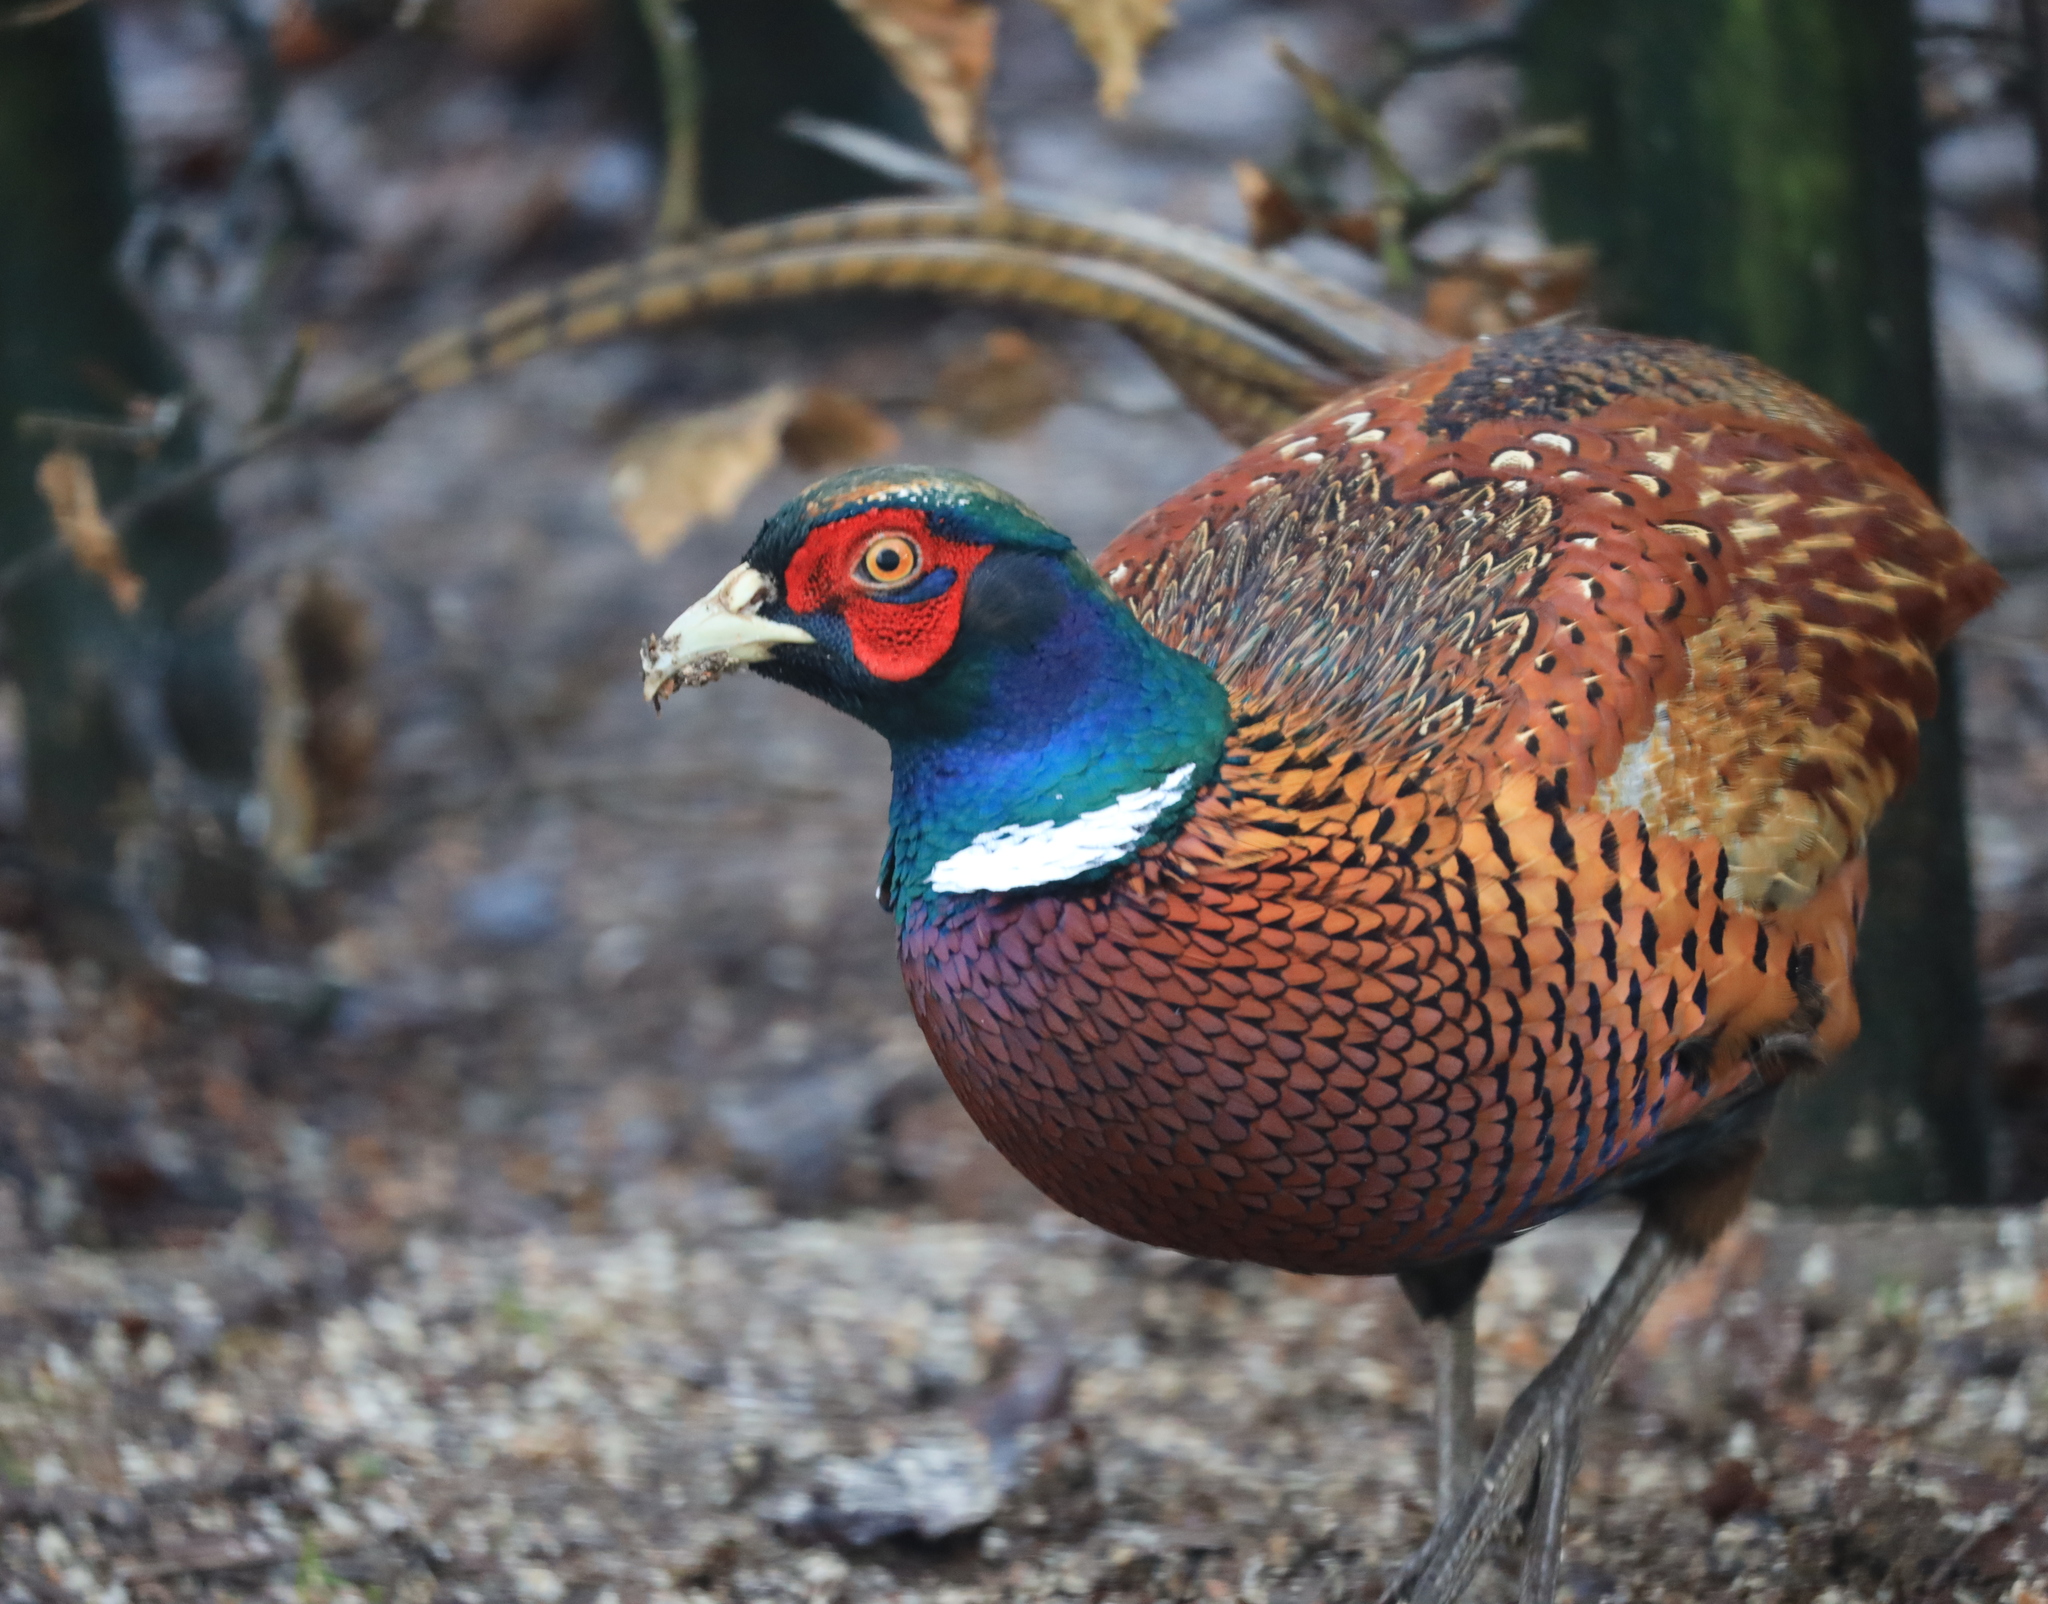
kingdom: Animalia
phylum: Chordata
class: Aves
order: Galliformes
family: Phasianidae
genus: Phasianus
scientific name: Phasianus colchicus
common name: Common pheasant
